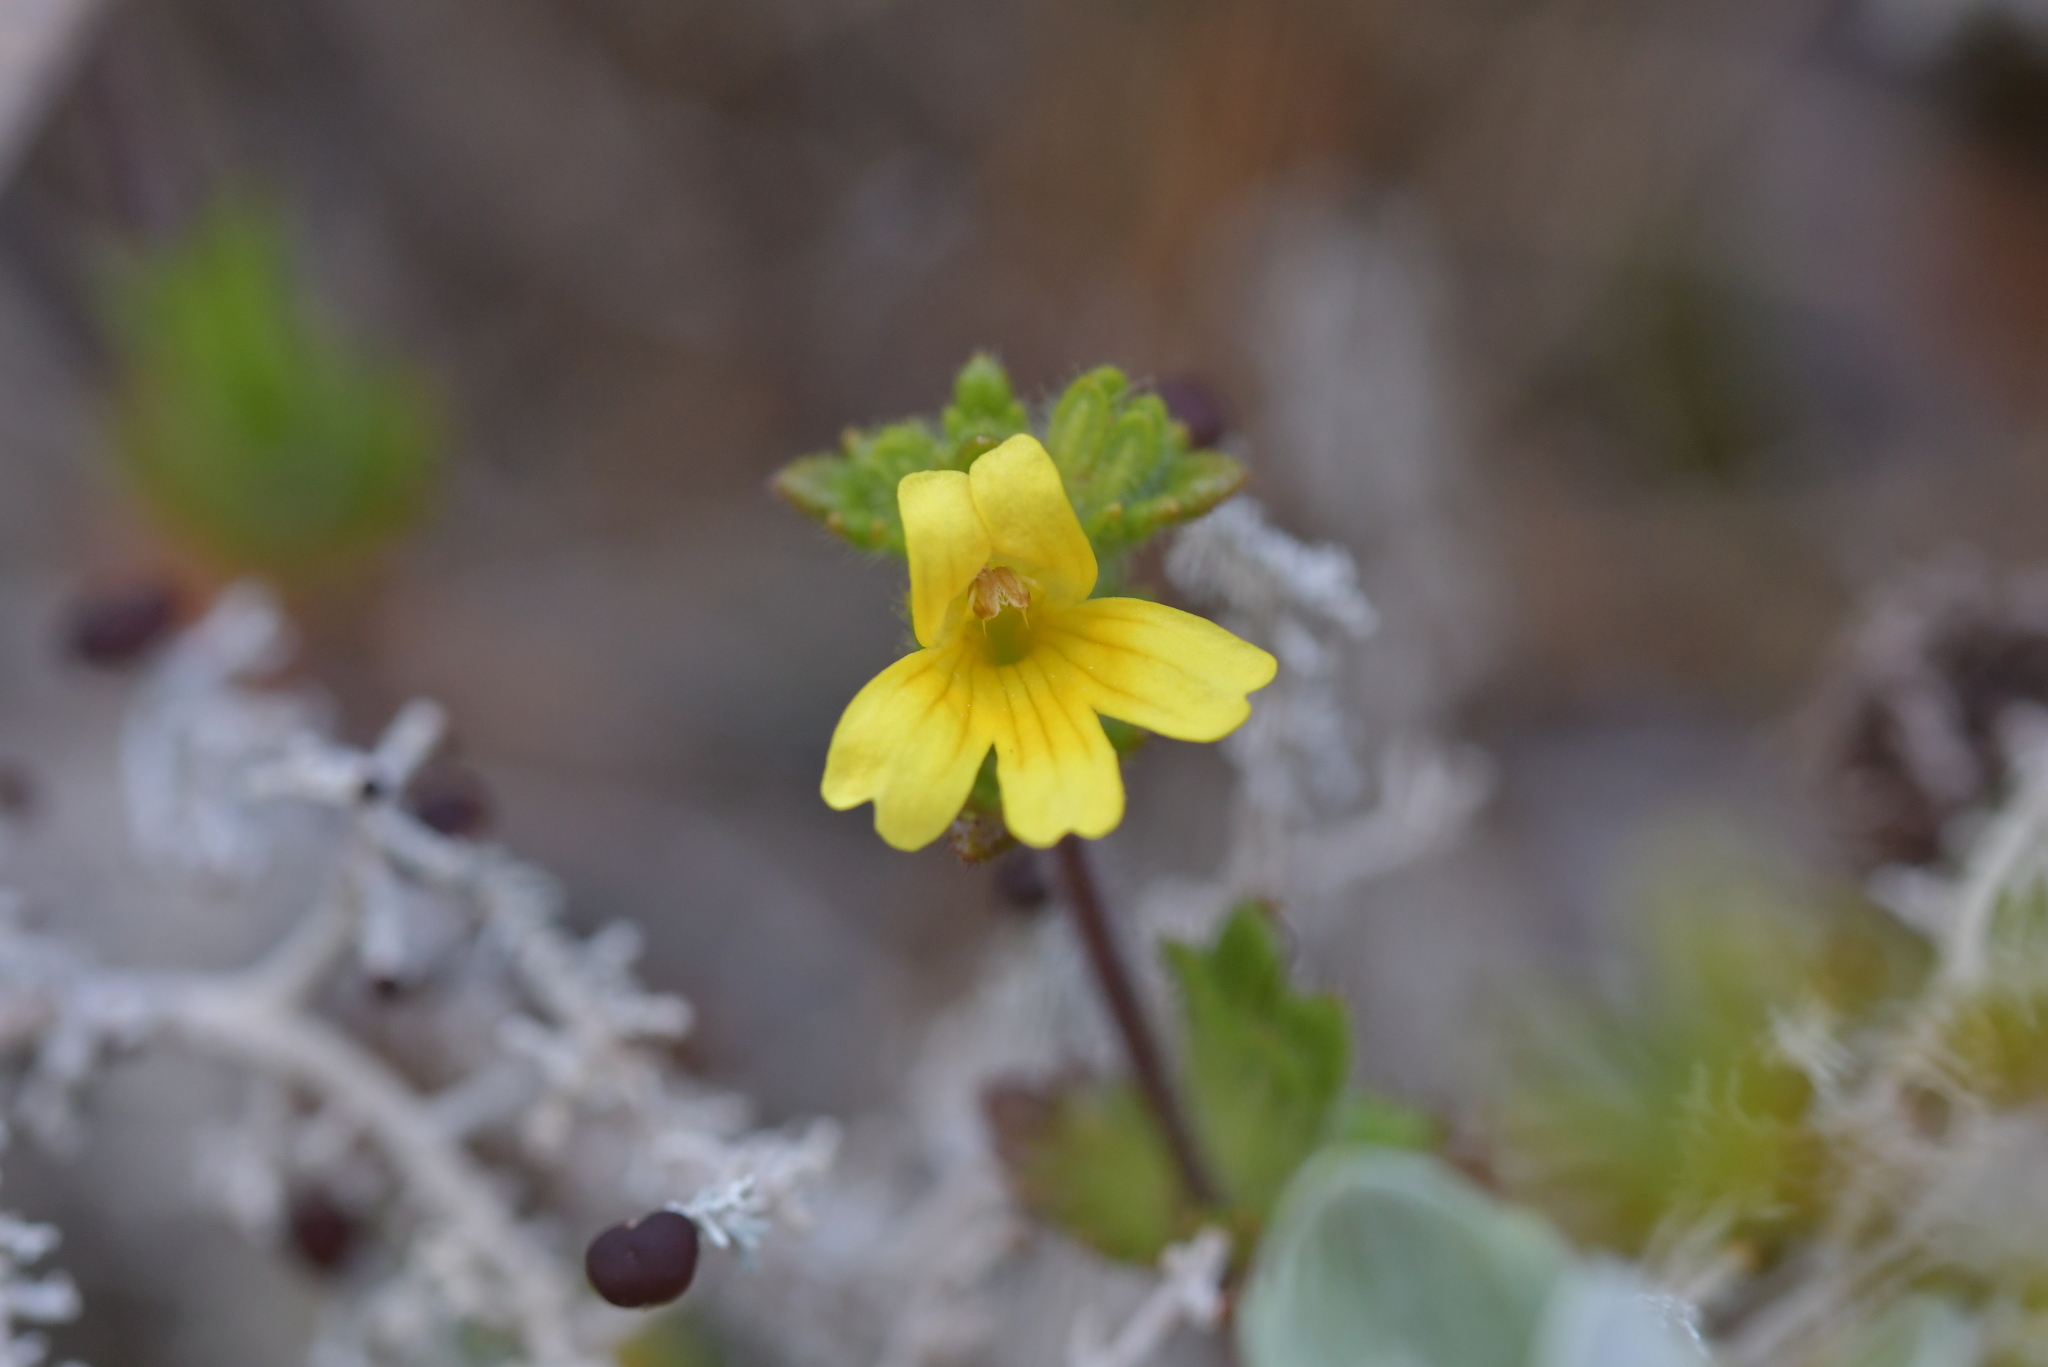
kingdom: Plantae
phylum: Tracheophyta
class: Magnoliopsida
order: Lamiales
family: Orobanchaceae
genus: Euphrasia
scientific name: Euphrasia cockayneana
